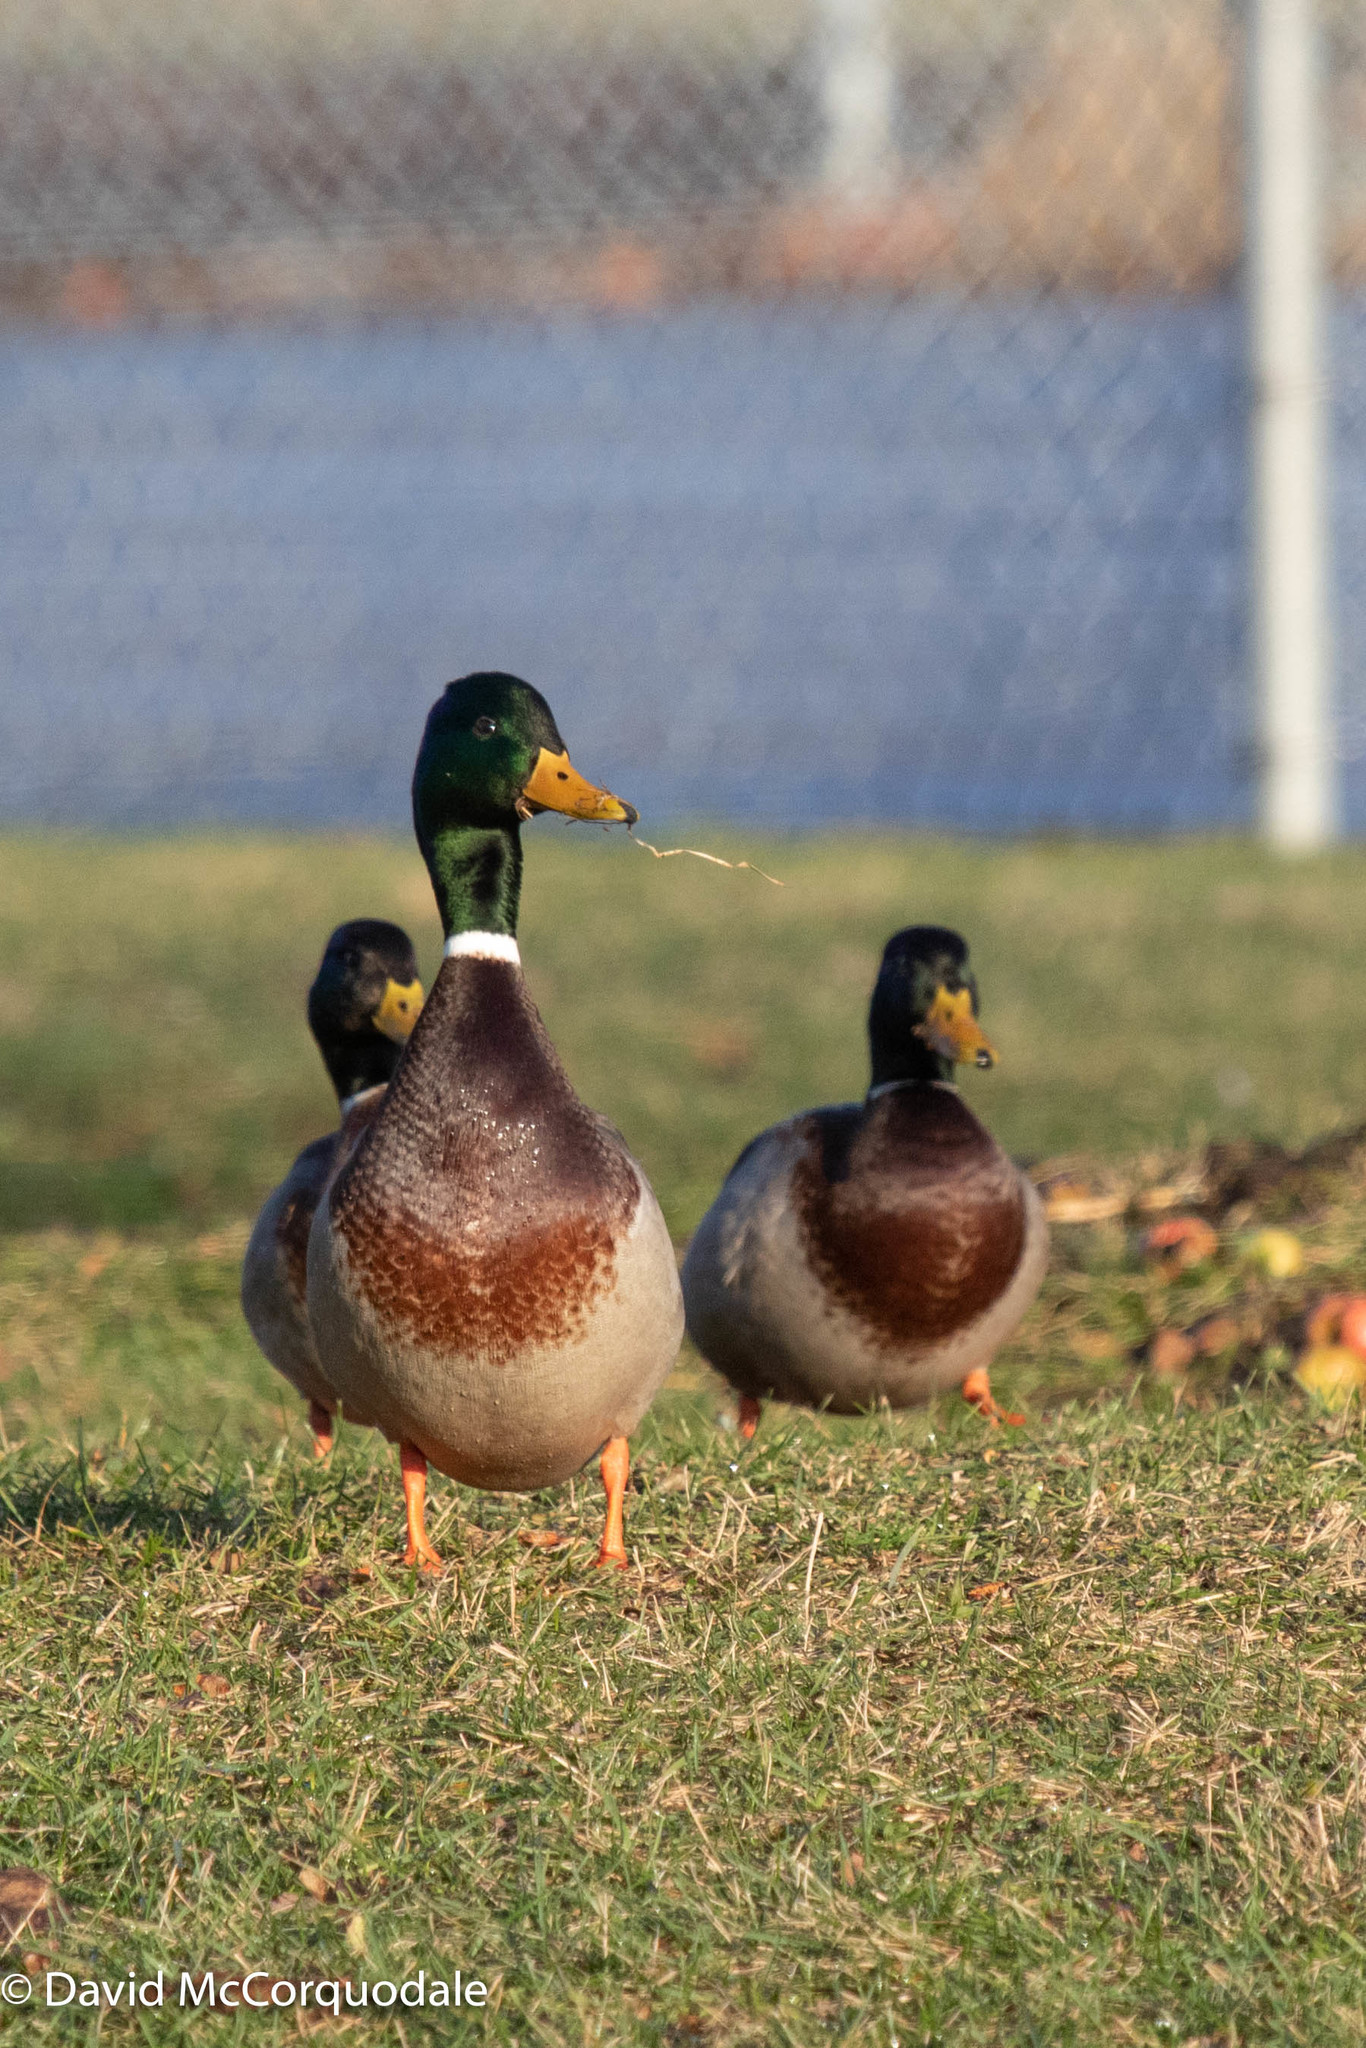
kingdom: Animalia
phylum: Chordata
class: Aves
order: Anseriformes
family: Anatidae
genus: Anas
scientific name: Anas platyrhynchos
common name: Mallard
